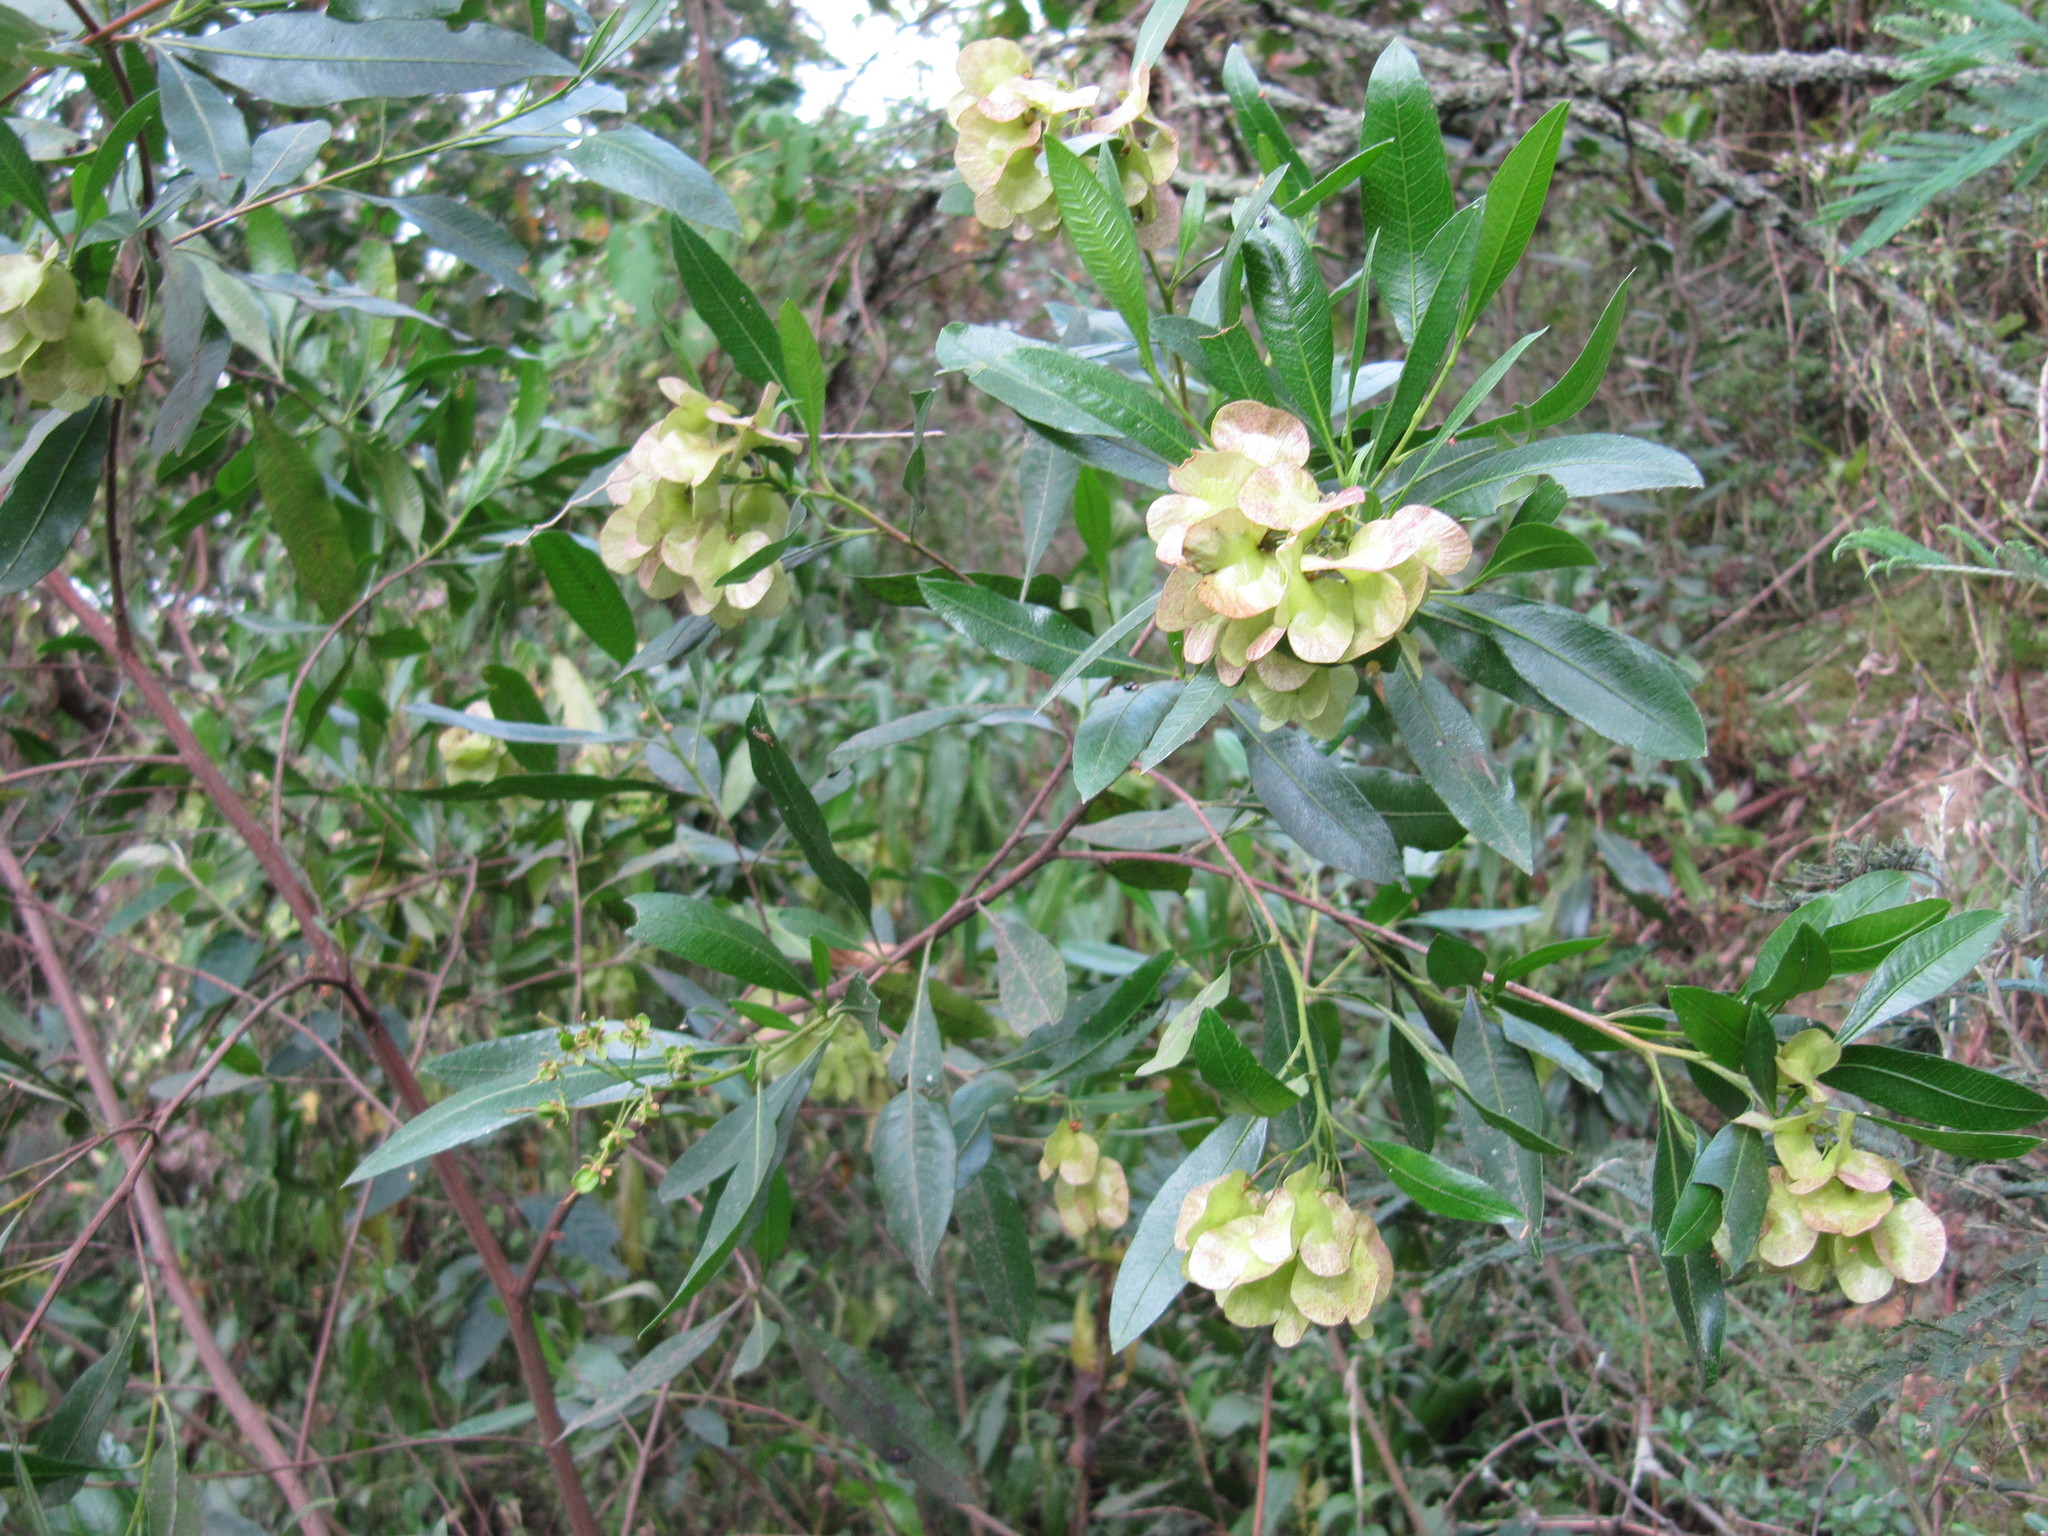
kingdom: Plantae
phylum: Tracheophyta
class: Magnoliopsida
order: Sapindales
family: Sapindaceae
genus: Dodonaea
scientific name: Dodonaea viscosa
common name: Hopbush
